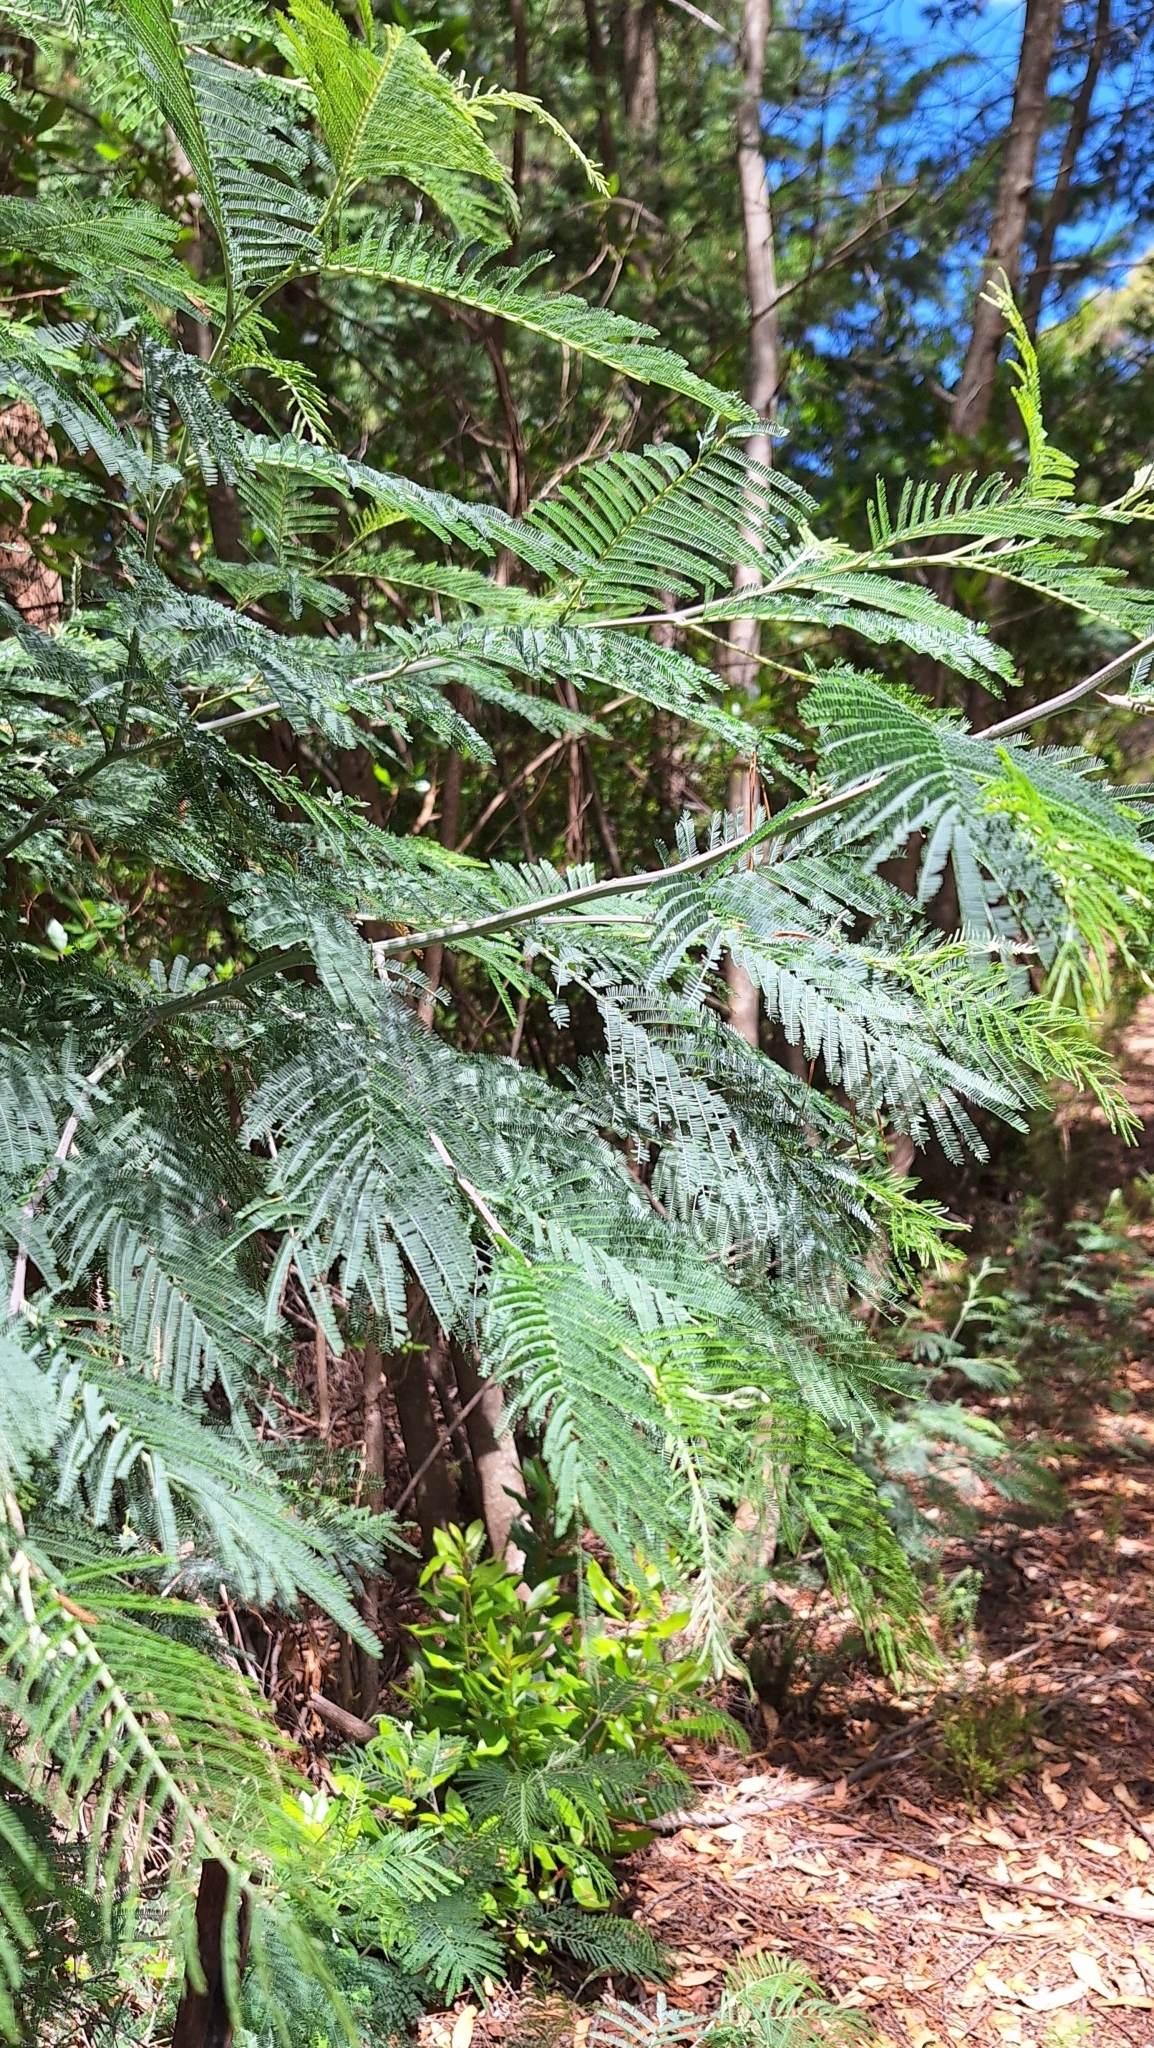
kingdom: Plantae
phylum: Tracheophyta
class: Magnoliopsida
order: Fabales
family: Fabaceae
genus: Acacia
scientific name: Acacia dealbata
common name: Silver wattle
